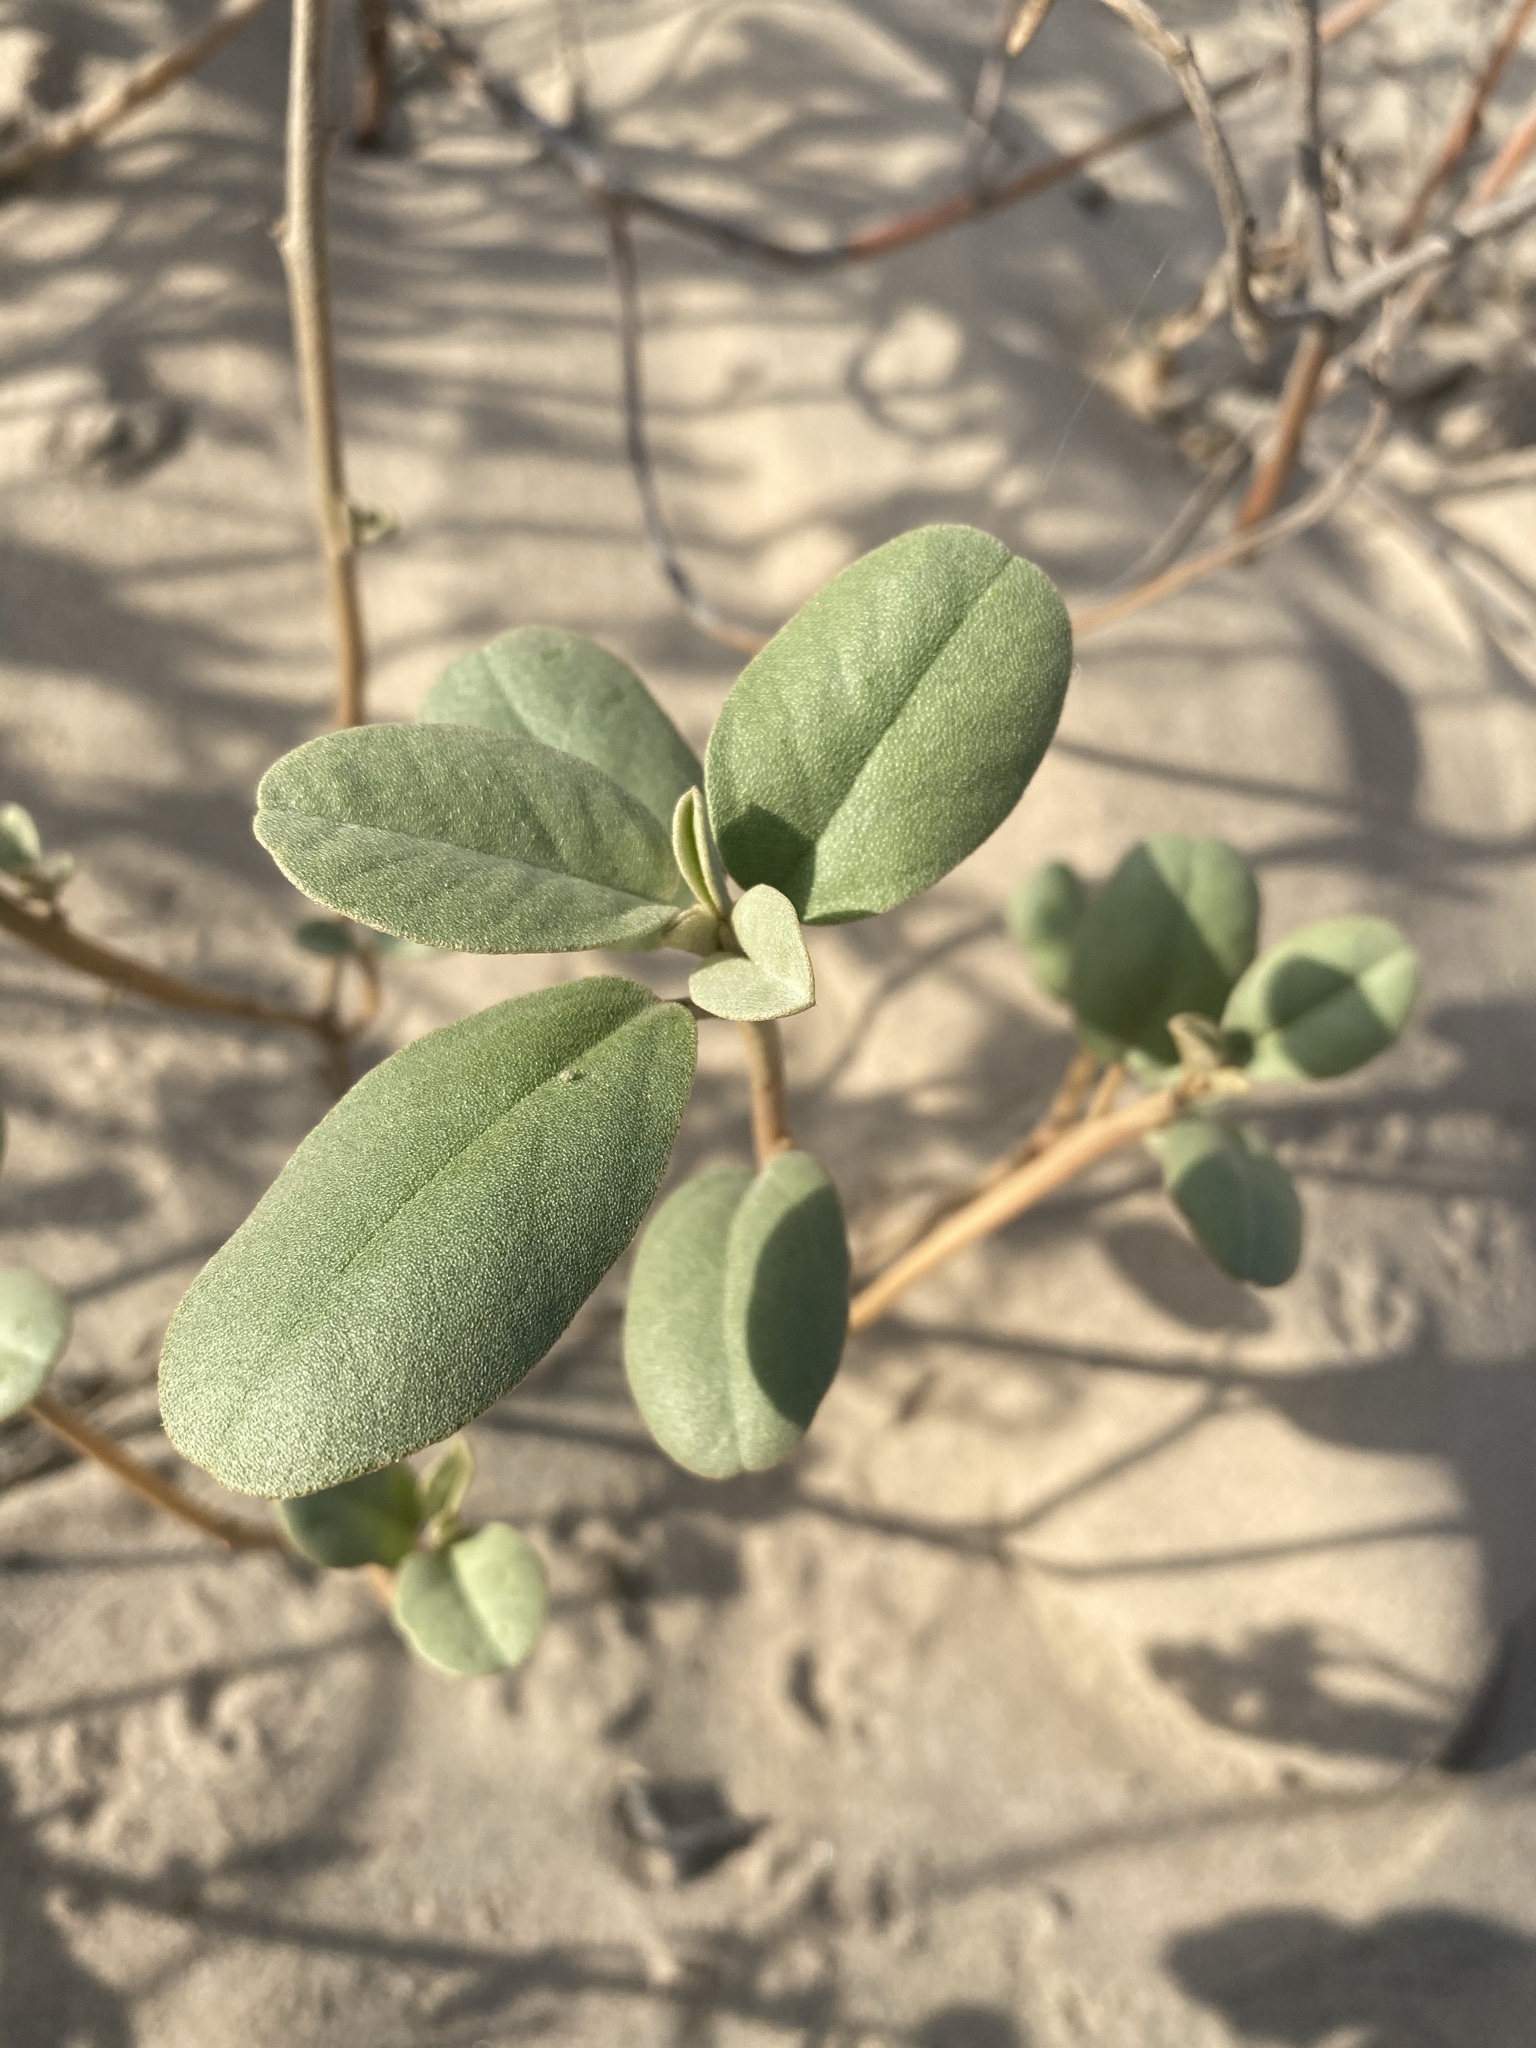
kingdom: Plantae
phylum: Tracheophyta
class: Magnoliopsida
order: Malpighiales
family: Euphorbiaceae
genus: Croton
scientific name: Croton punctatus
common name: Beach-tea
